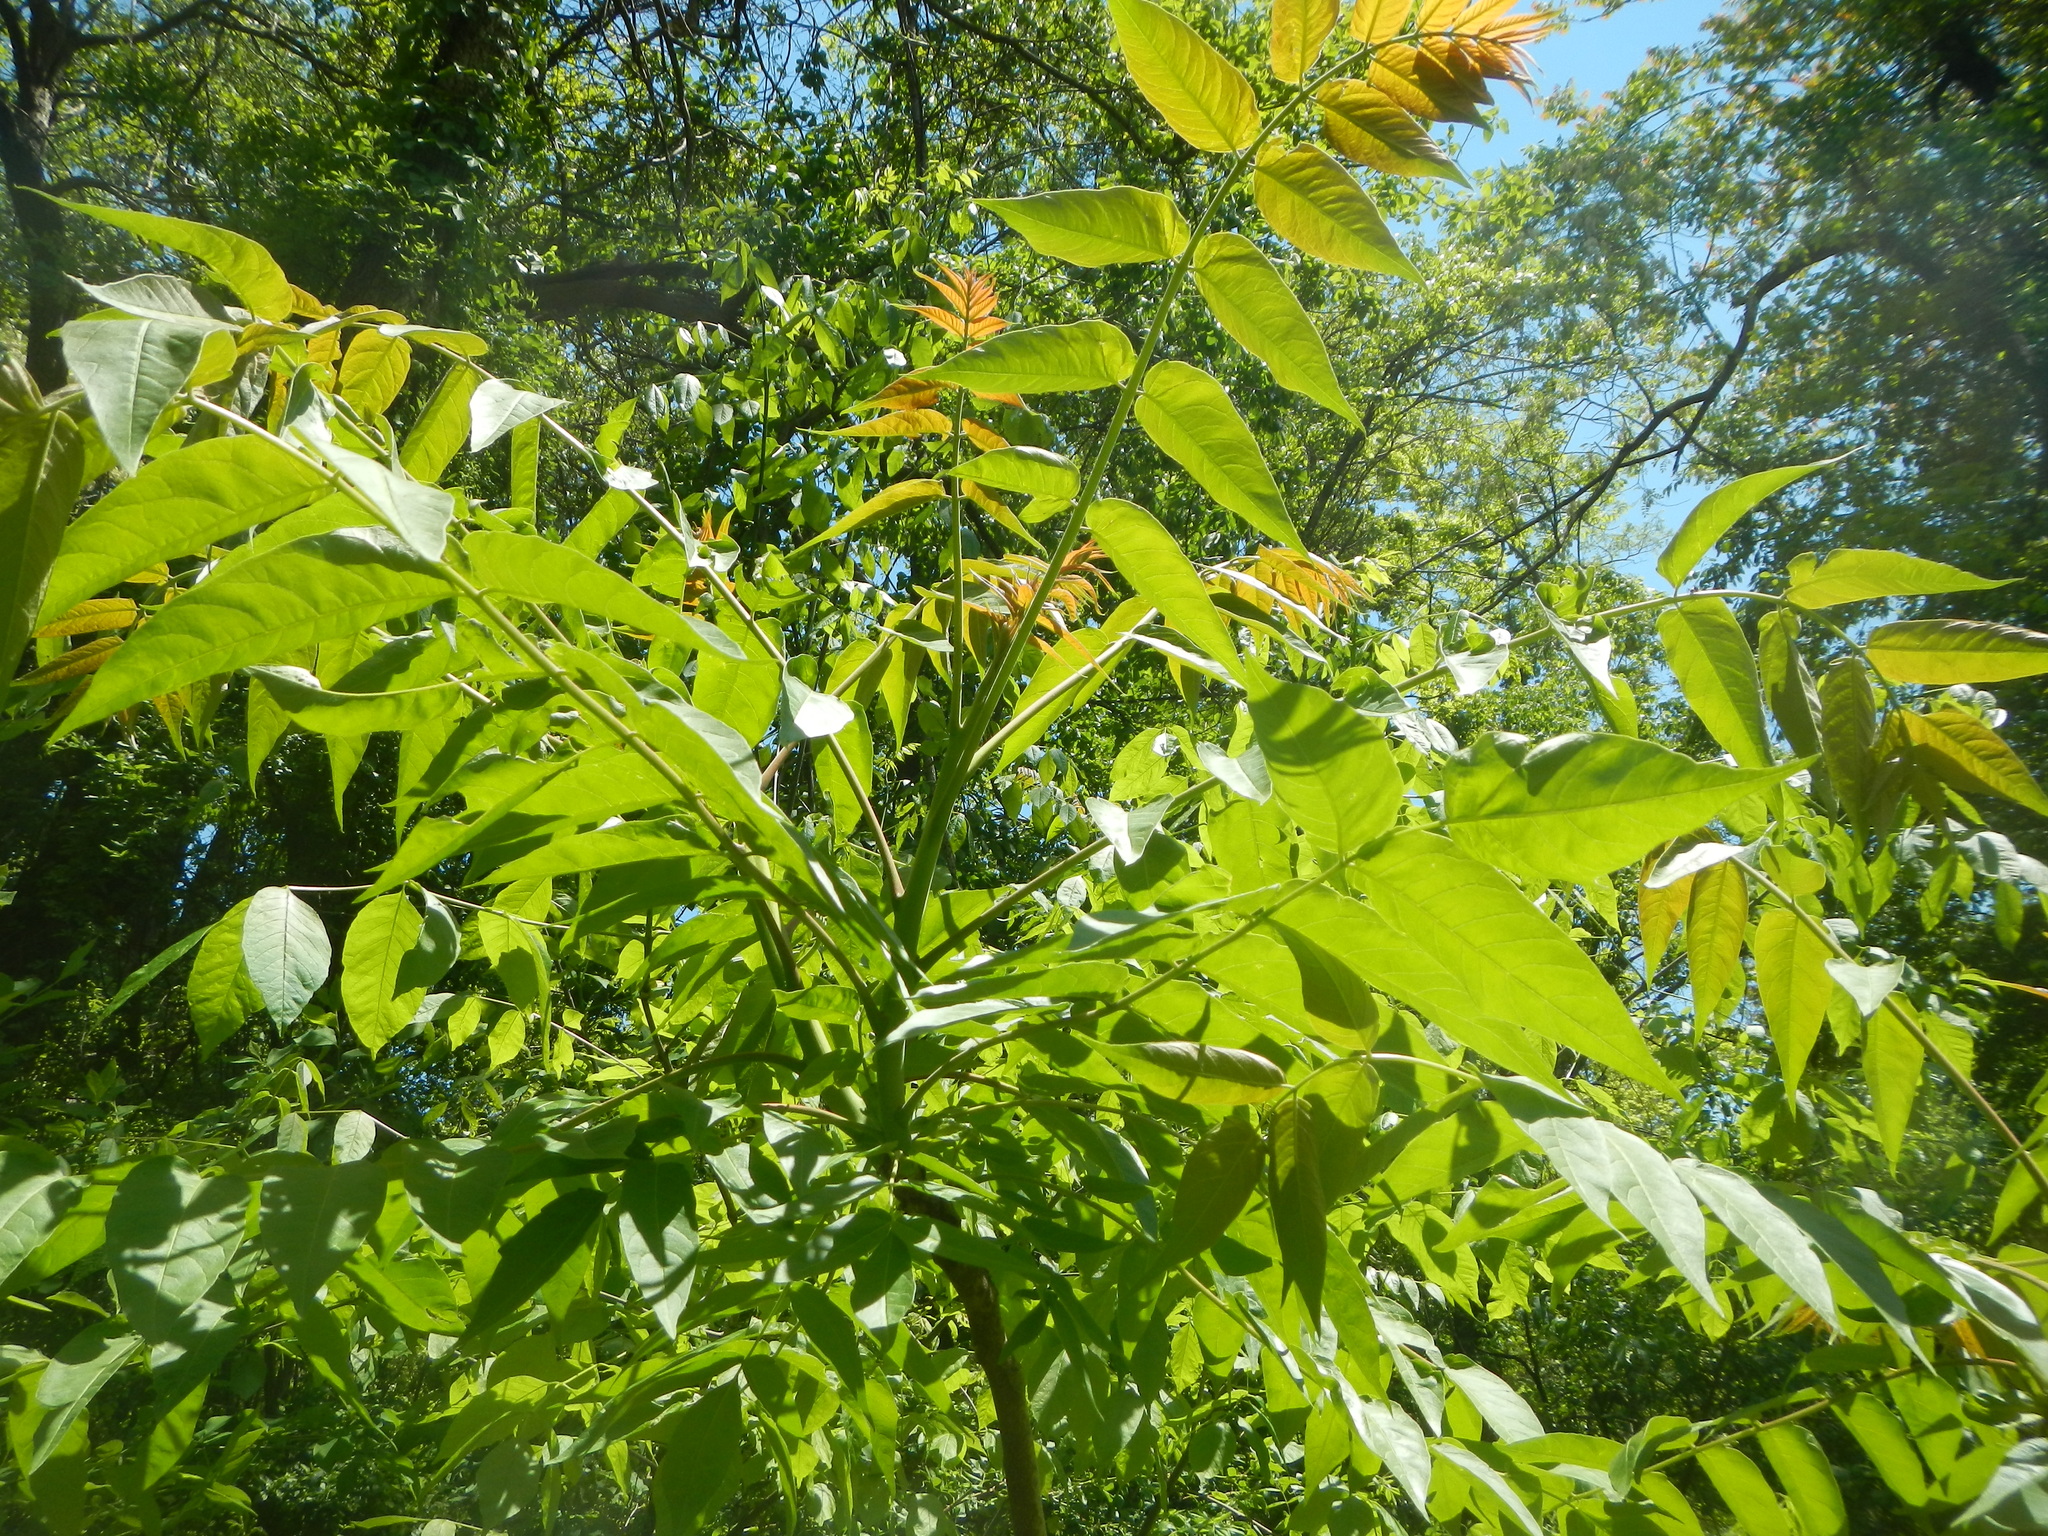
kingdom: Plantae
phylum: Tracheophyta
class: Magnoliopsida
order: Sapindales
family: Simaroubaceae
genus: Ailanthus
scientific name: Ailanthus altissima
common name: Tree-of-heaven
